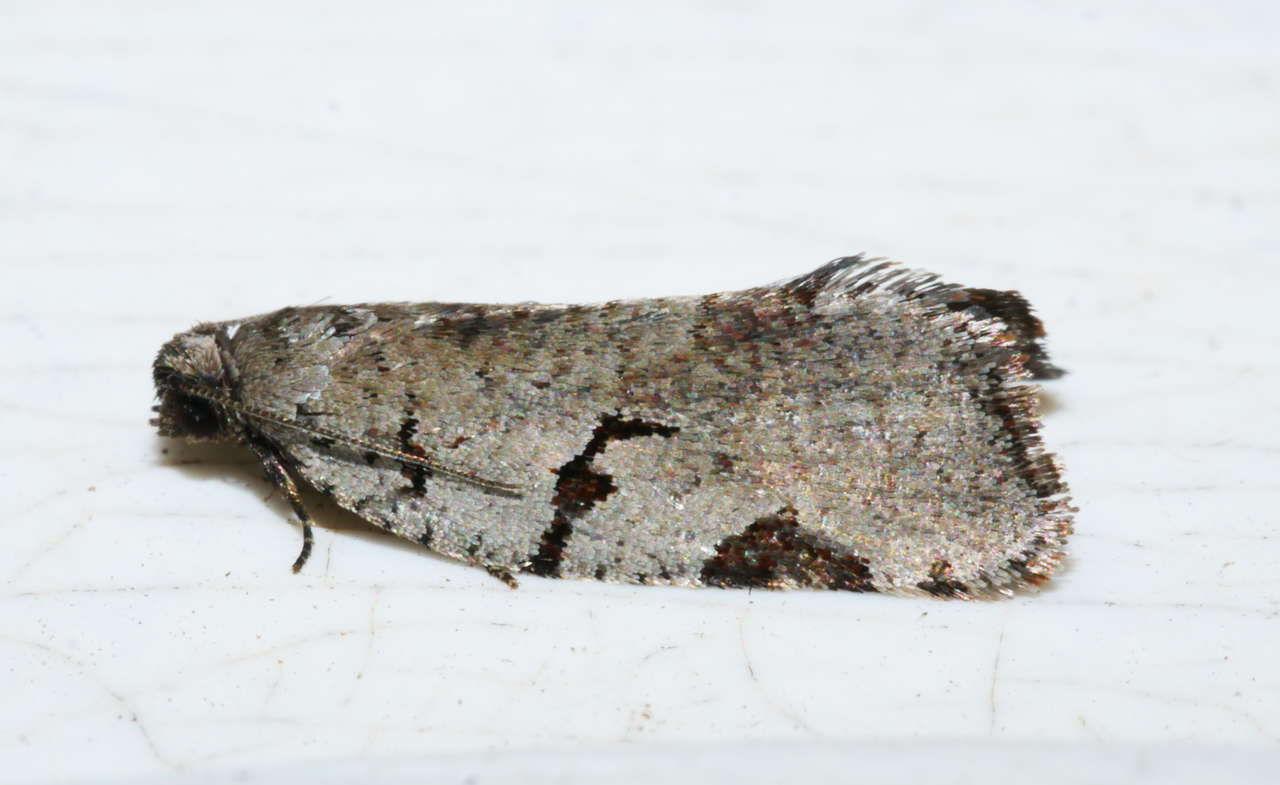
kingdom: Animalia
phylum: Arthropoda
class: Insecta
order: Lepidoptera
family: Tortricidae
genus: Meritastis
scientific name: Meritastis pyrosemana
